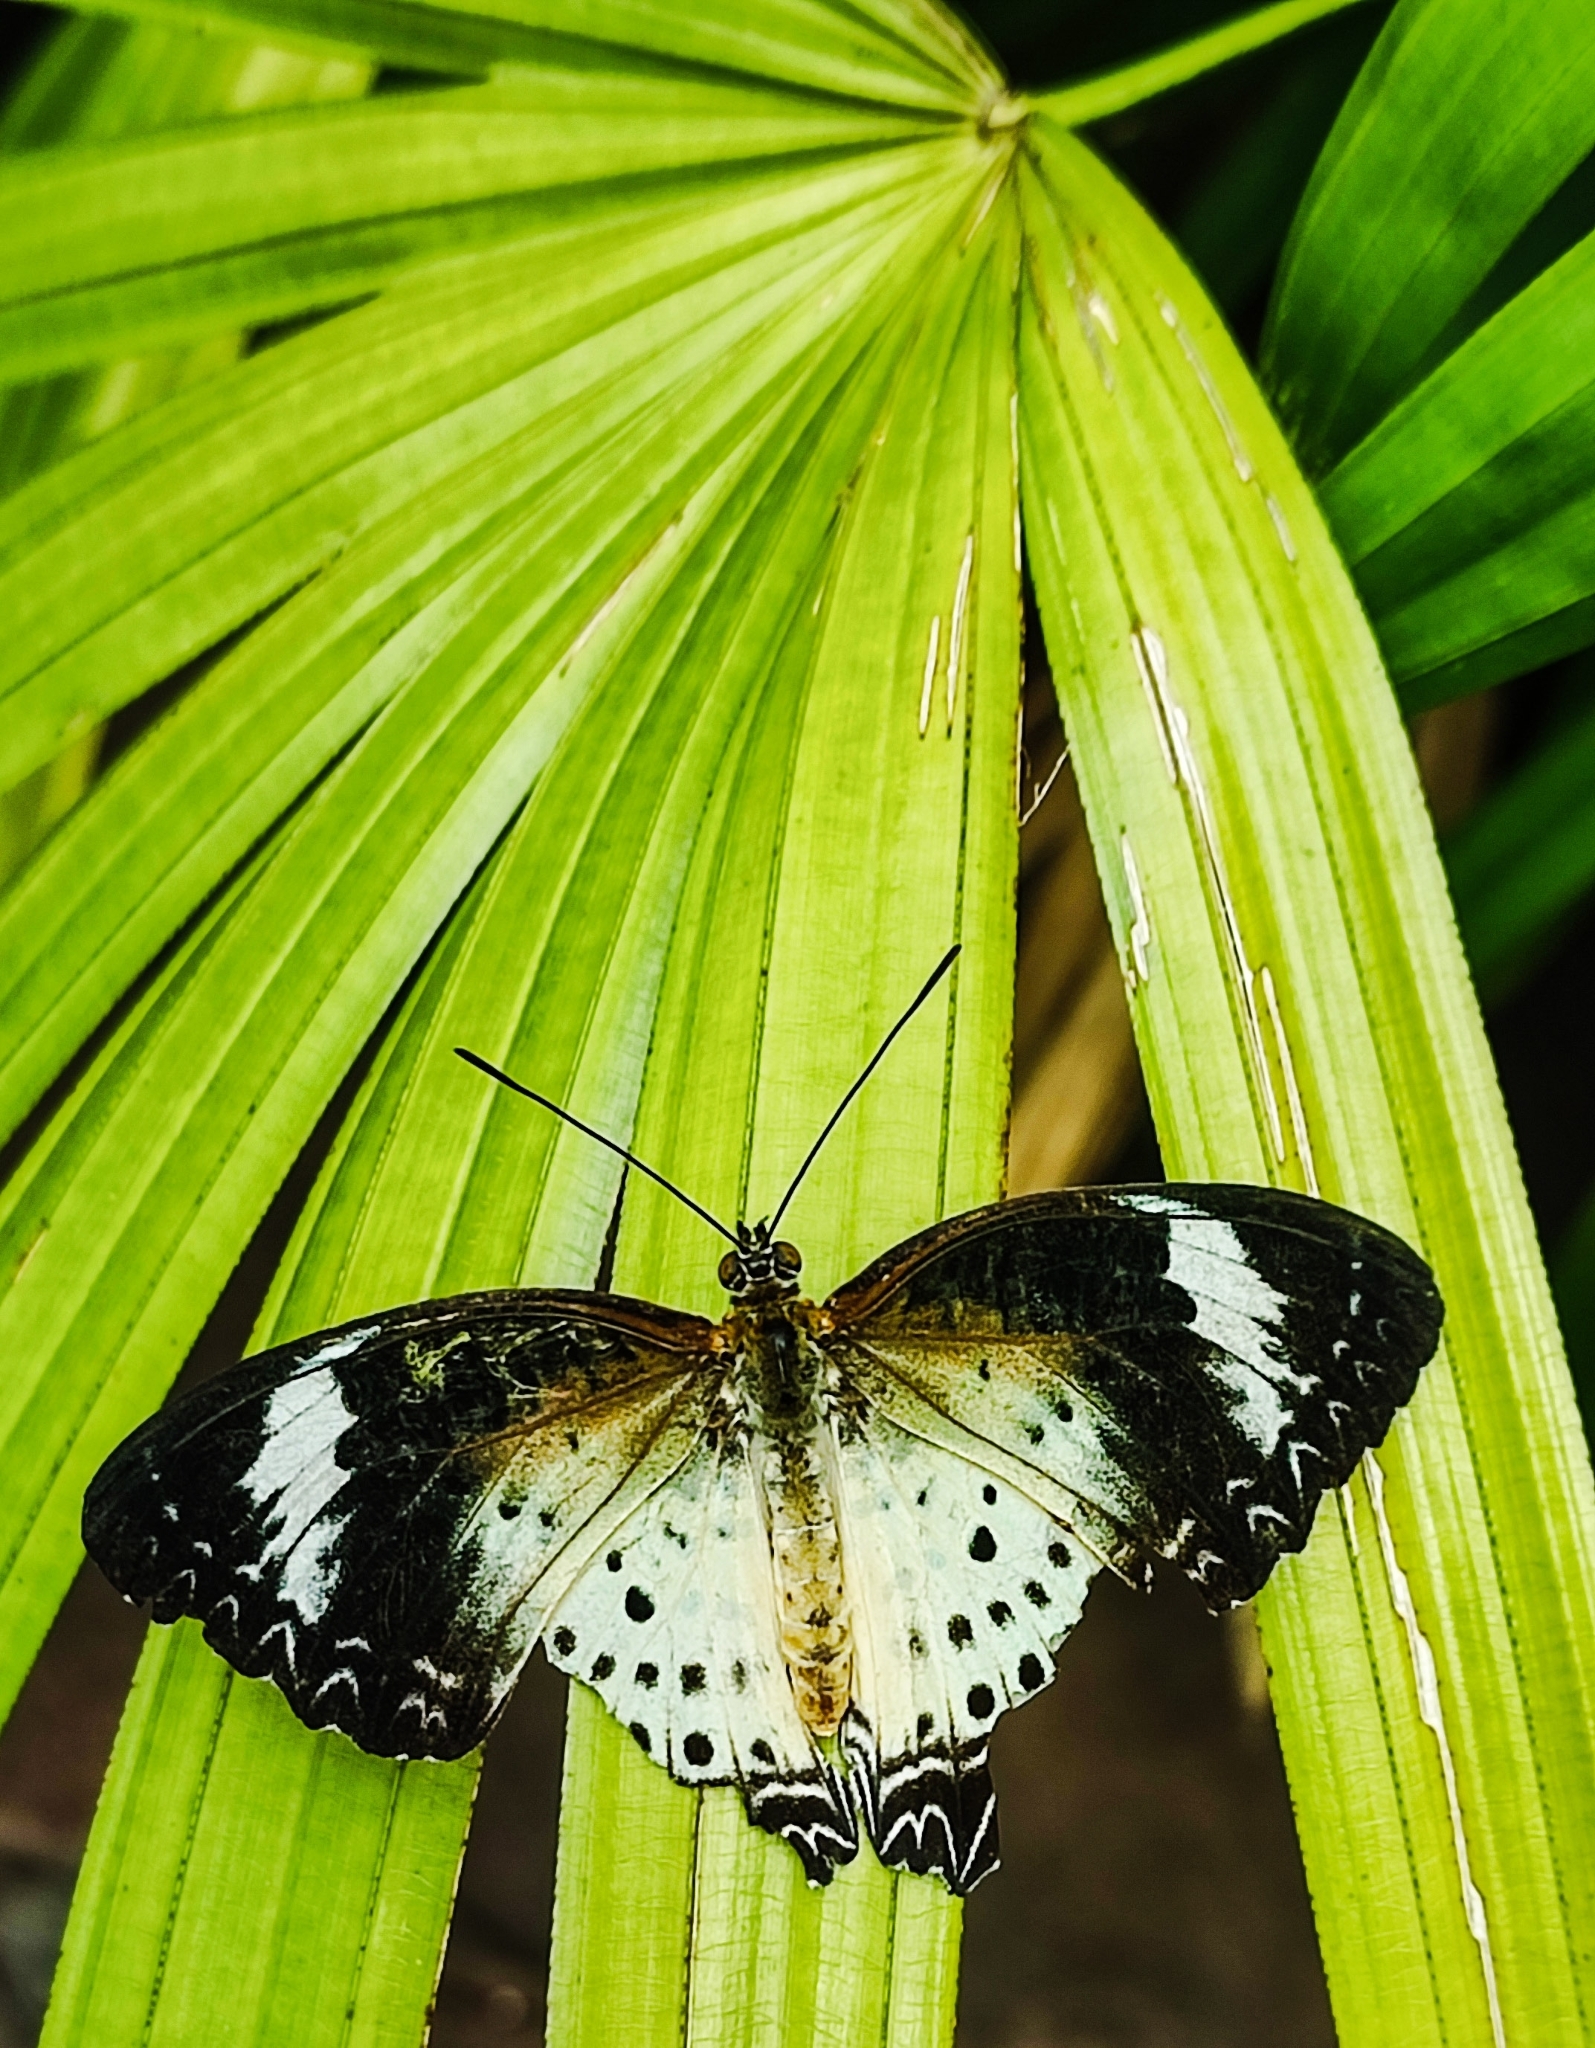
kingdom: Animalia
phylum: Arthropoda
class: Insecta
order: Lepidoptera
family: Nymphalidae
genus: Cethosia
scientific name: Cethosia cyane
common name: Leopard lacewing butterfly
